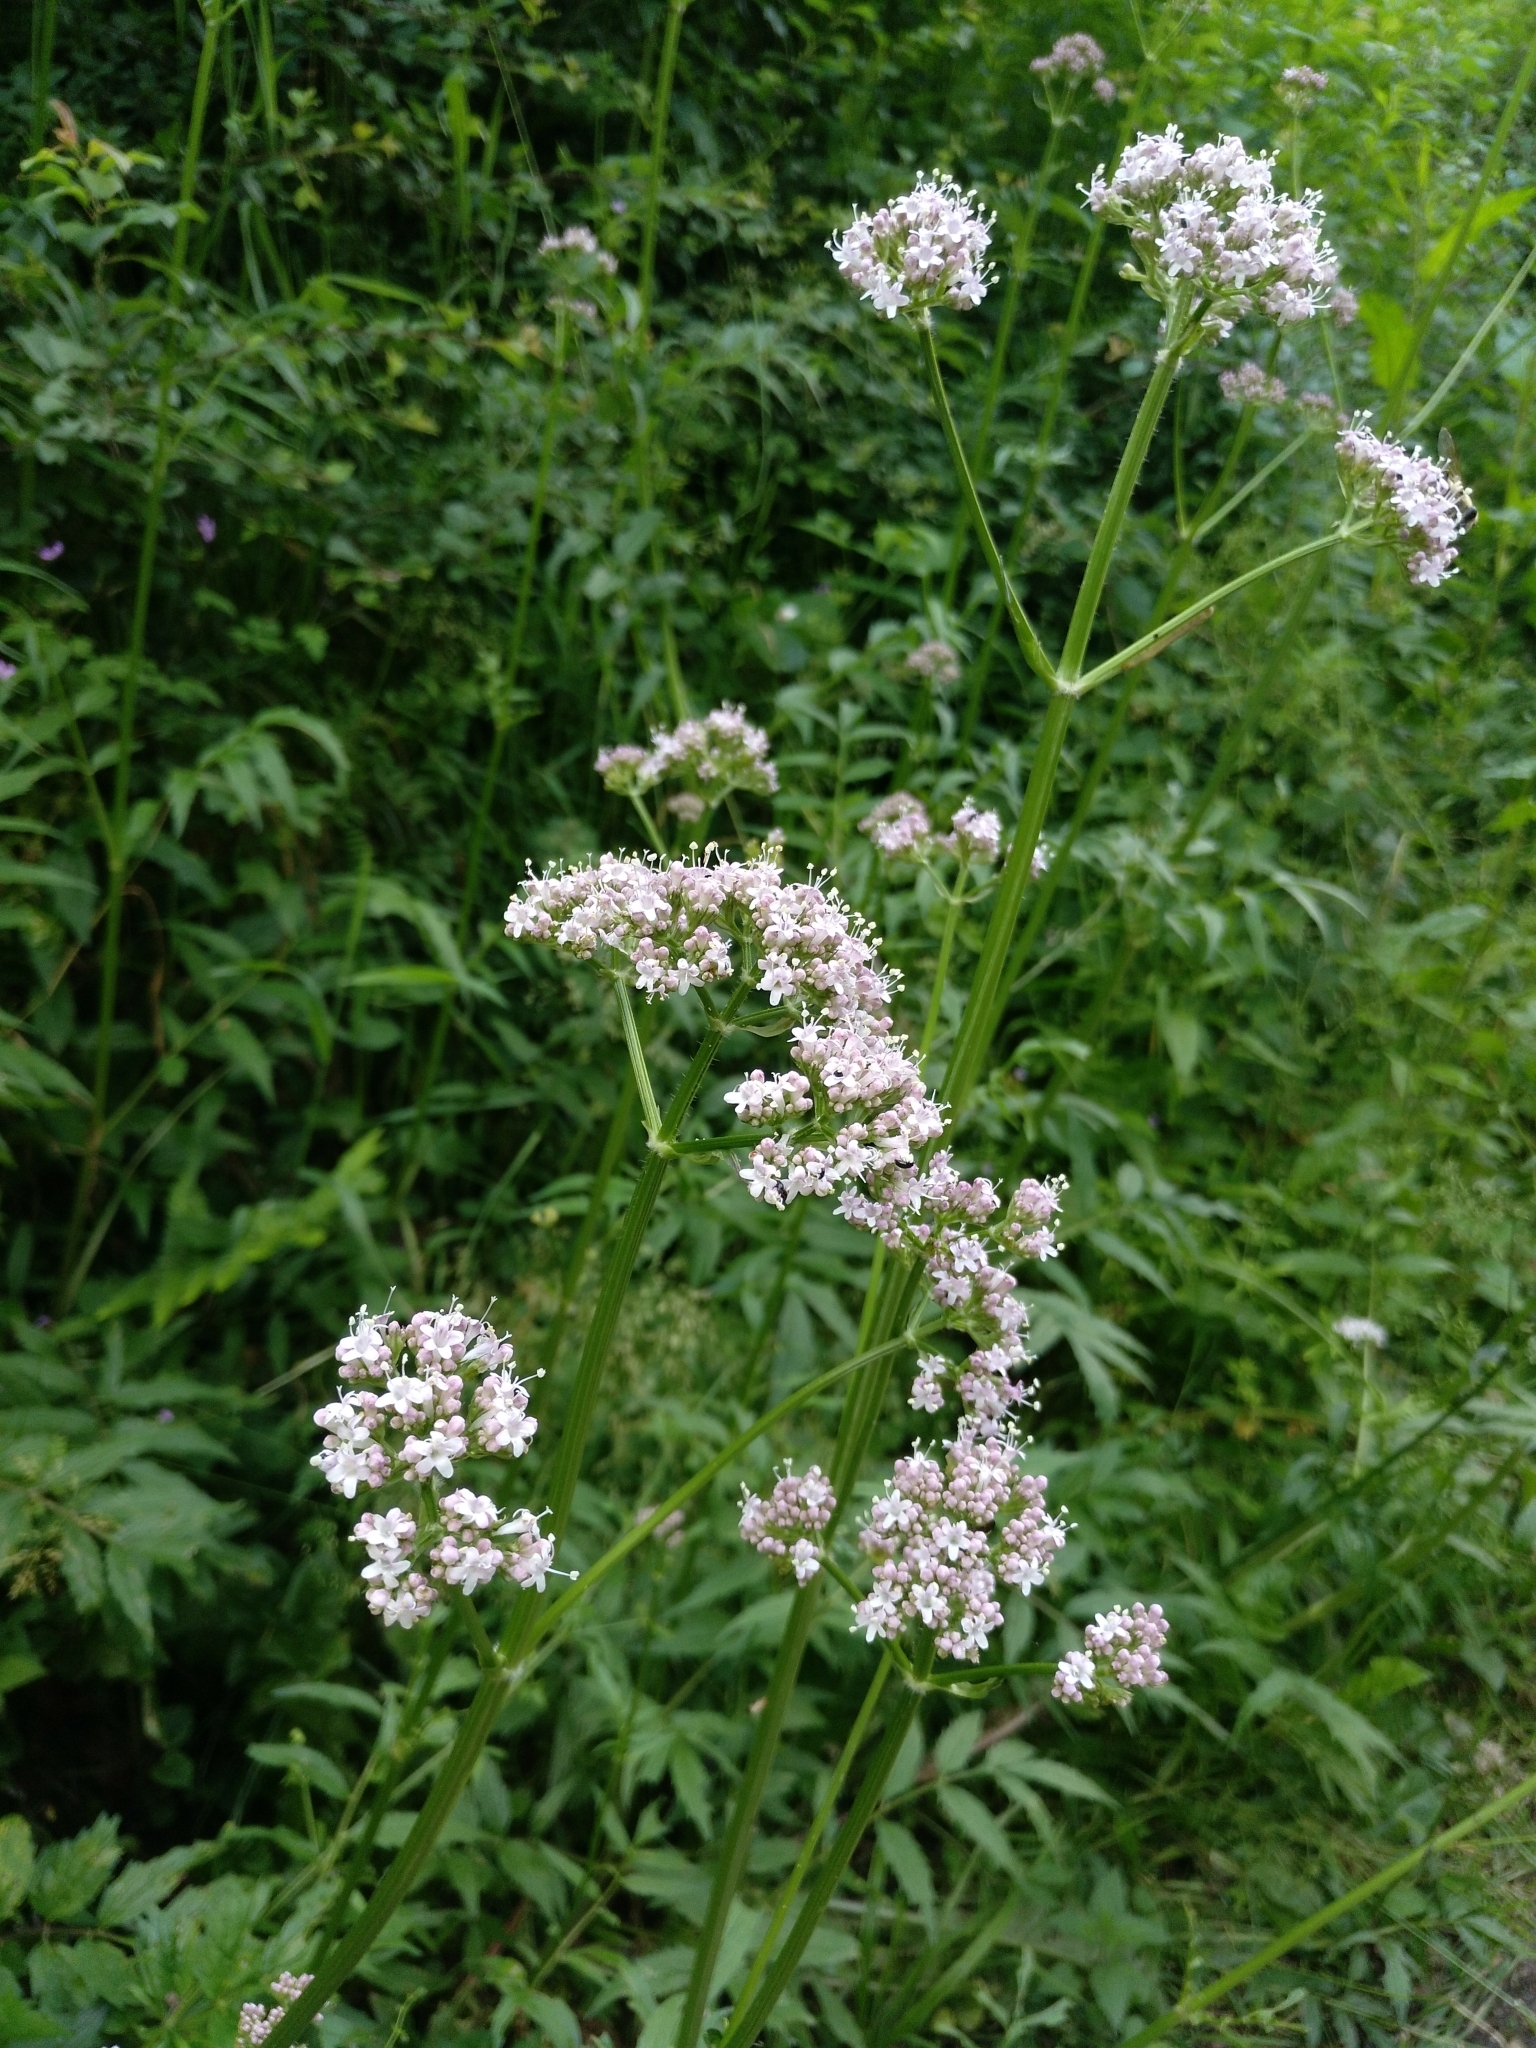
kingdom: Plantae
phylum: Tracheophyta
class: Magnoliopsida
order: Dipsacales
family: Caprifoliaceae
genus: Valeriana
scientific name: Valeriana officinalis
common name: Common valerian
